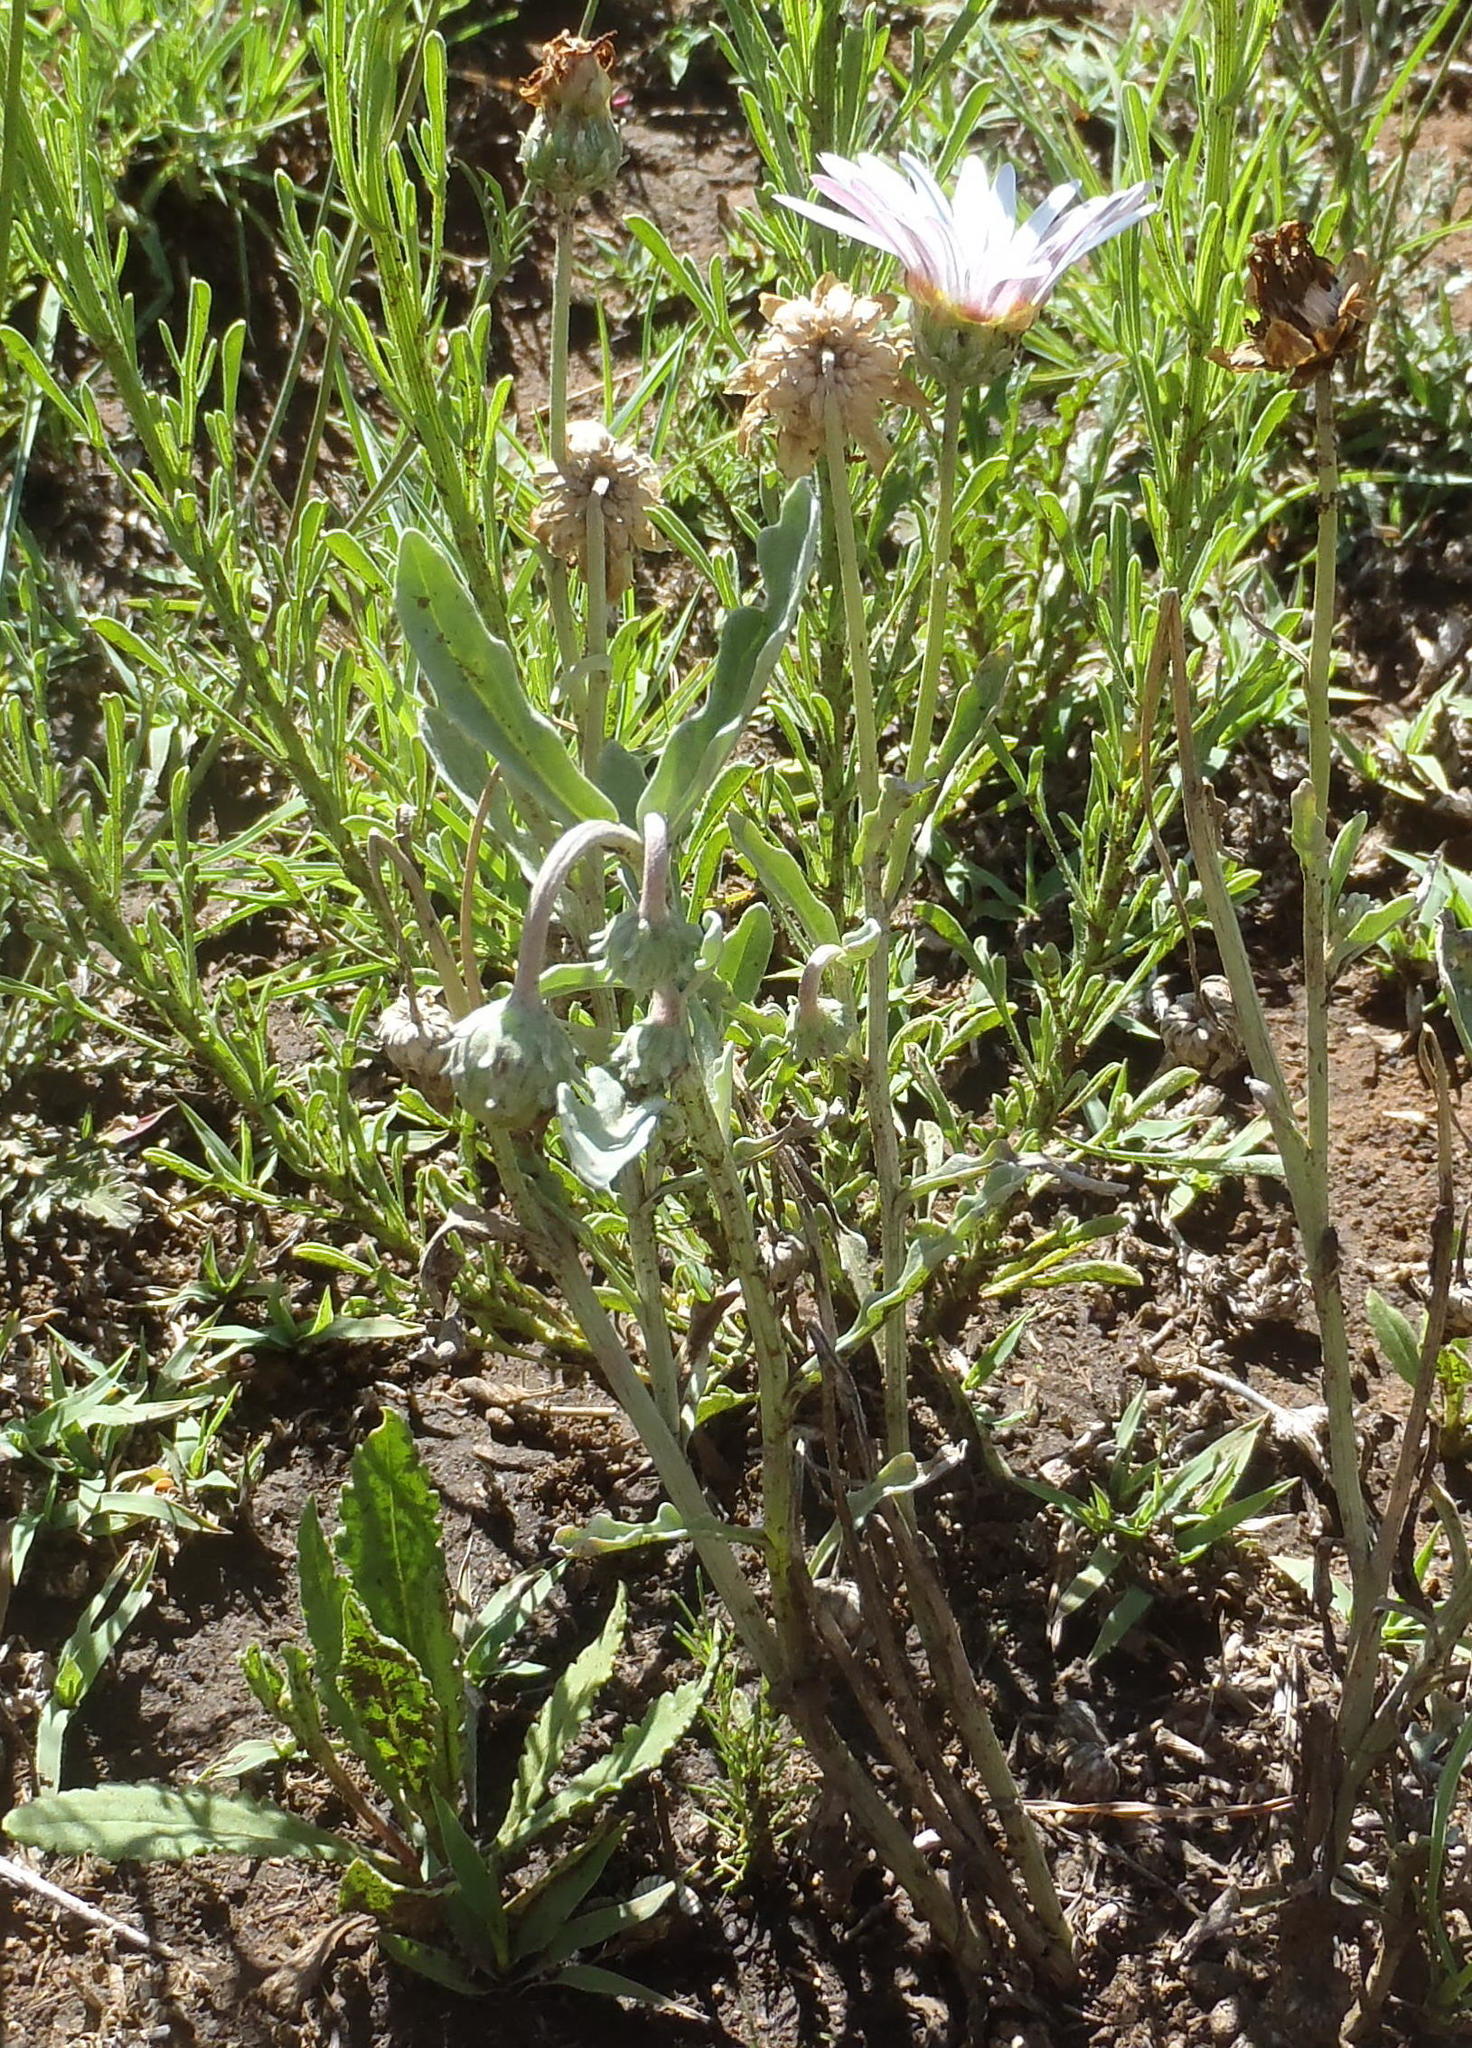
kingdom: Plantae
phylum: Tracheophyta
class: Magnoliopsida
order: Asterales
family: Asteraceae
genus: Arctotis
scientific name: Arctotis venusta
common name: African daisy
